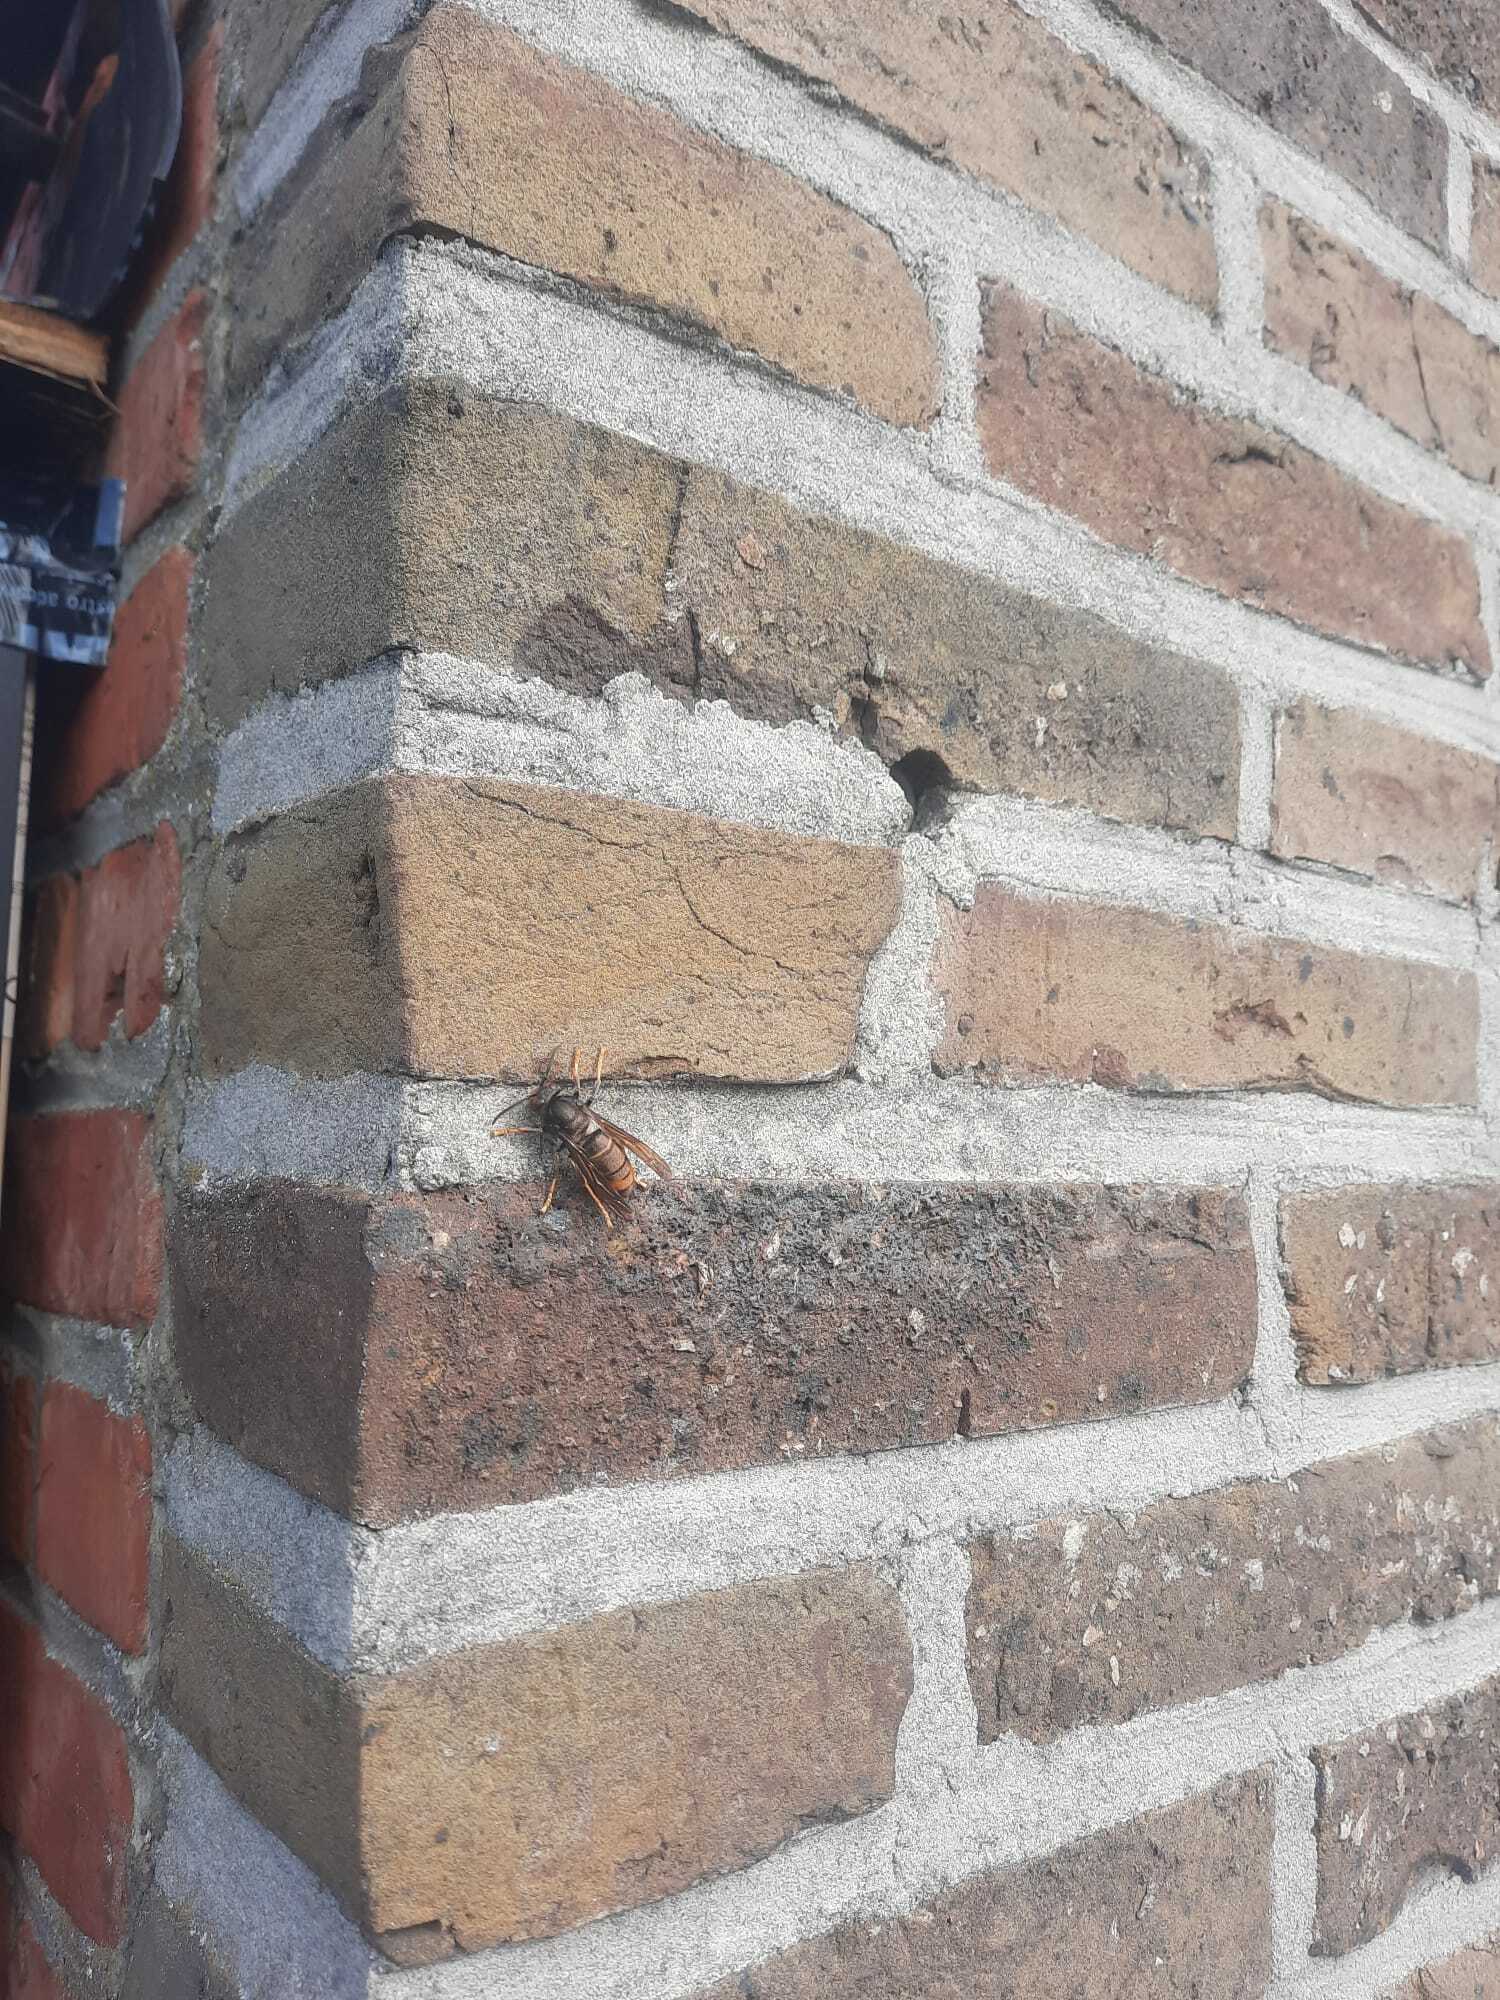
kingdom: Animalia
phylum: Arthropoda
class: Insecta
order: Hymenoptera
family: Vespidae
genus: Vespa
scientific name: Vespa velutina
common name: Asian hornet
